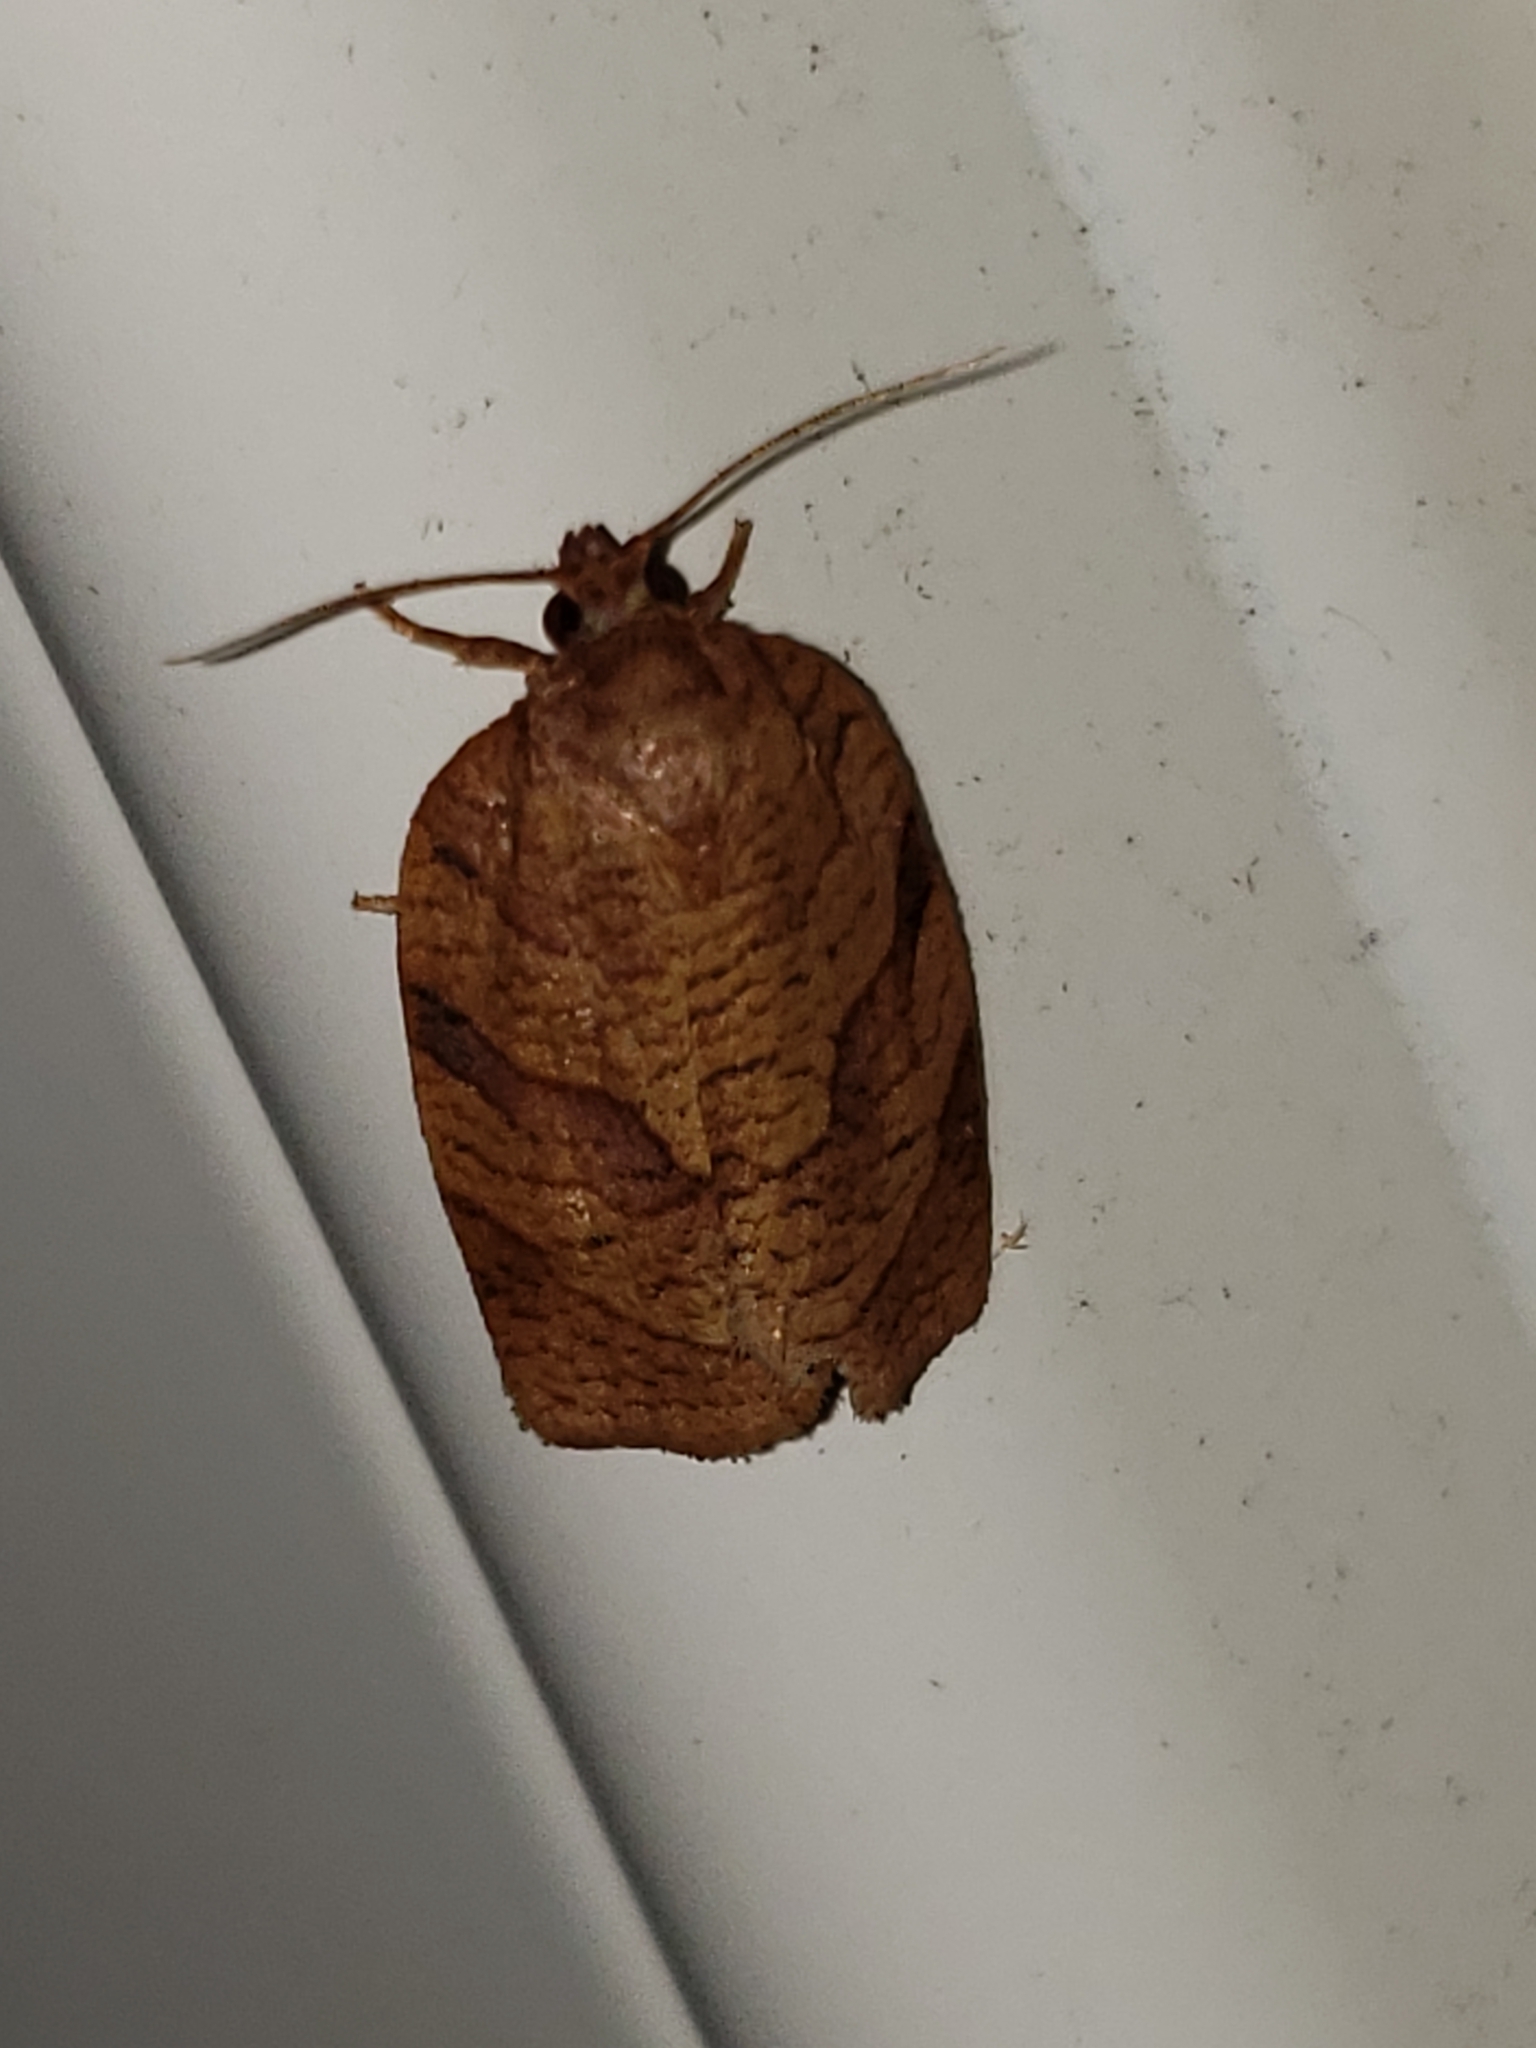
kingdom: Animalia
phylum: Arthropoda
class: Insecta
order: Lepidoptera
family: Tortricidae
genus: Choristoneura
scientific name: Choristoneura parallela
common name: Parallel-banded leafroller moth
